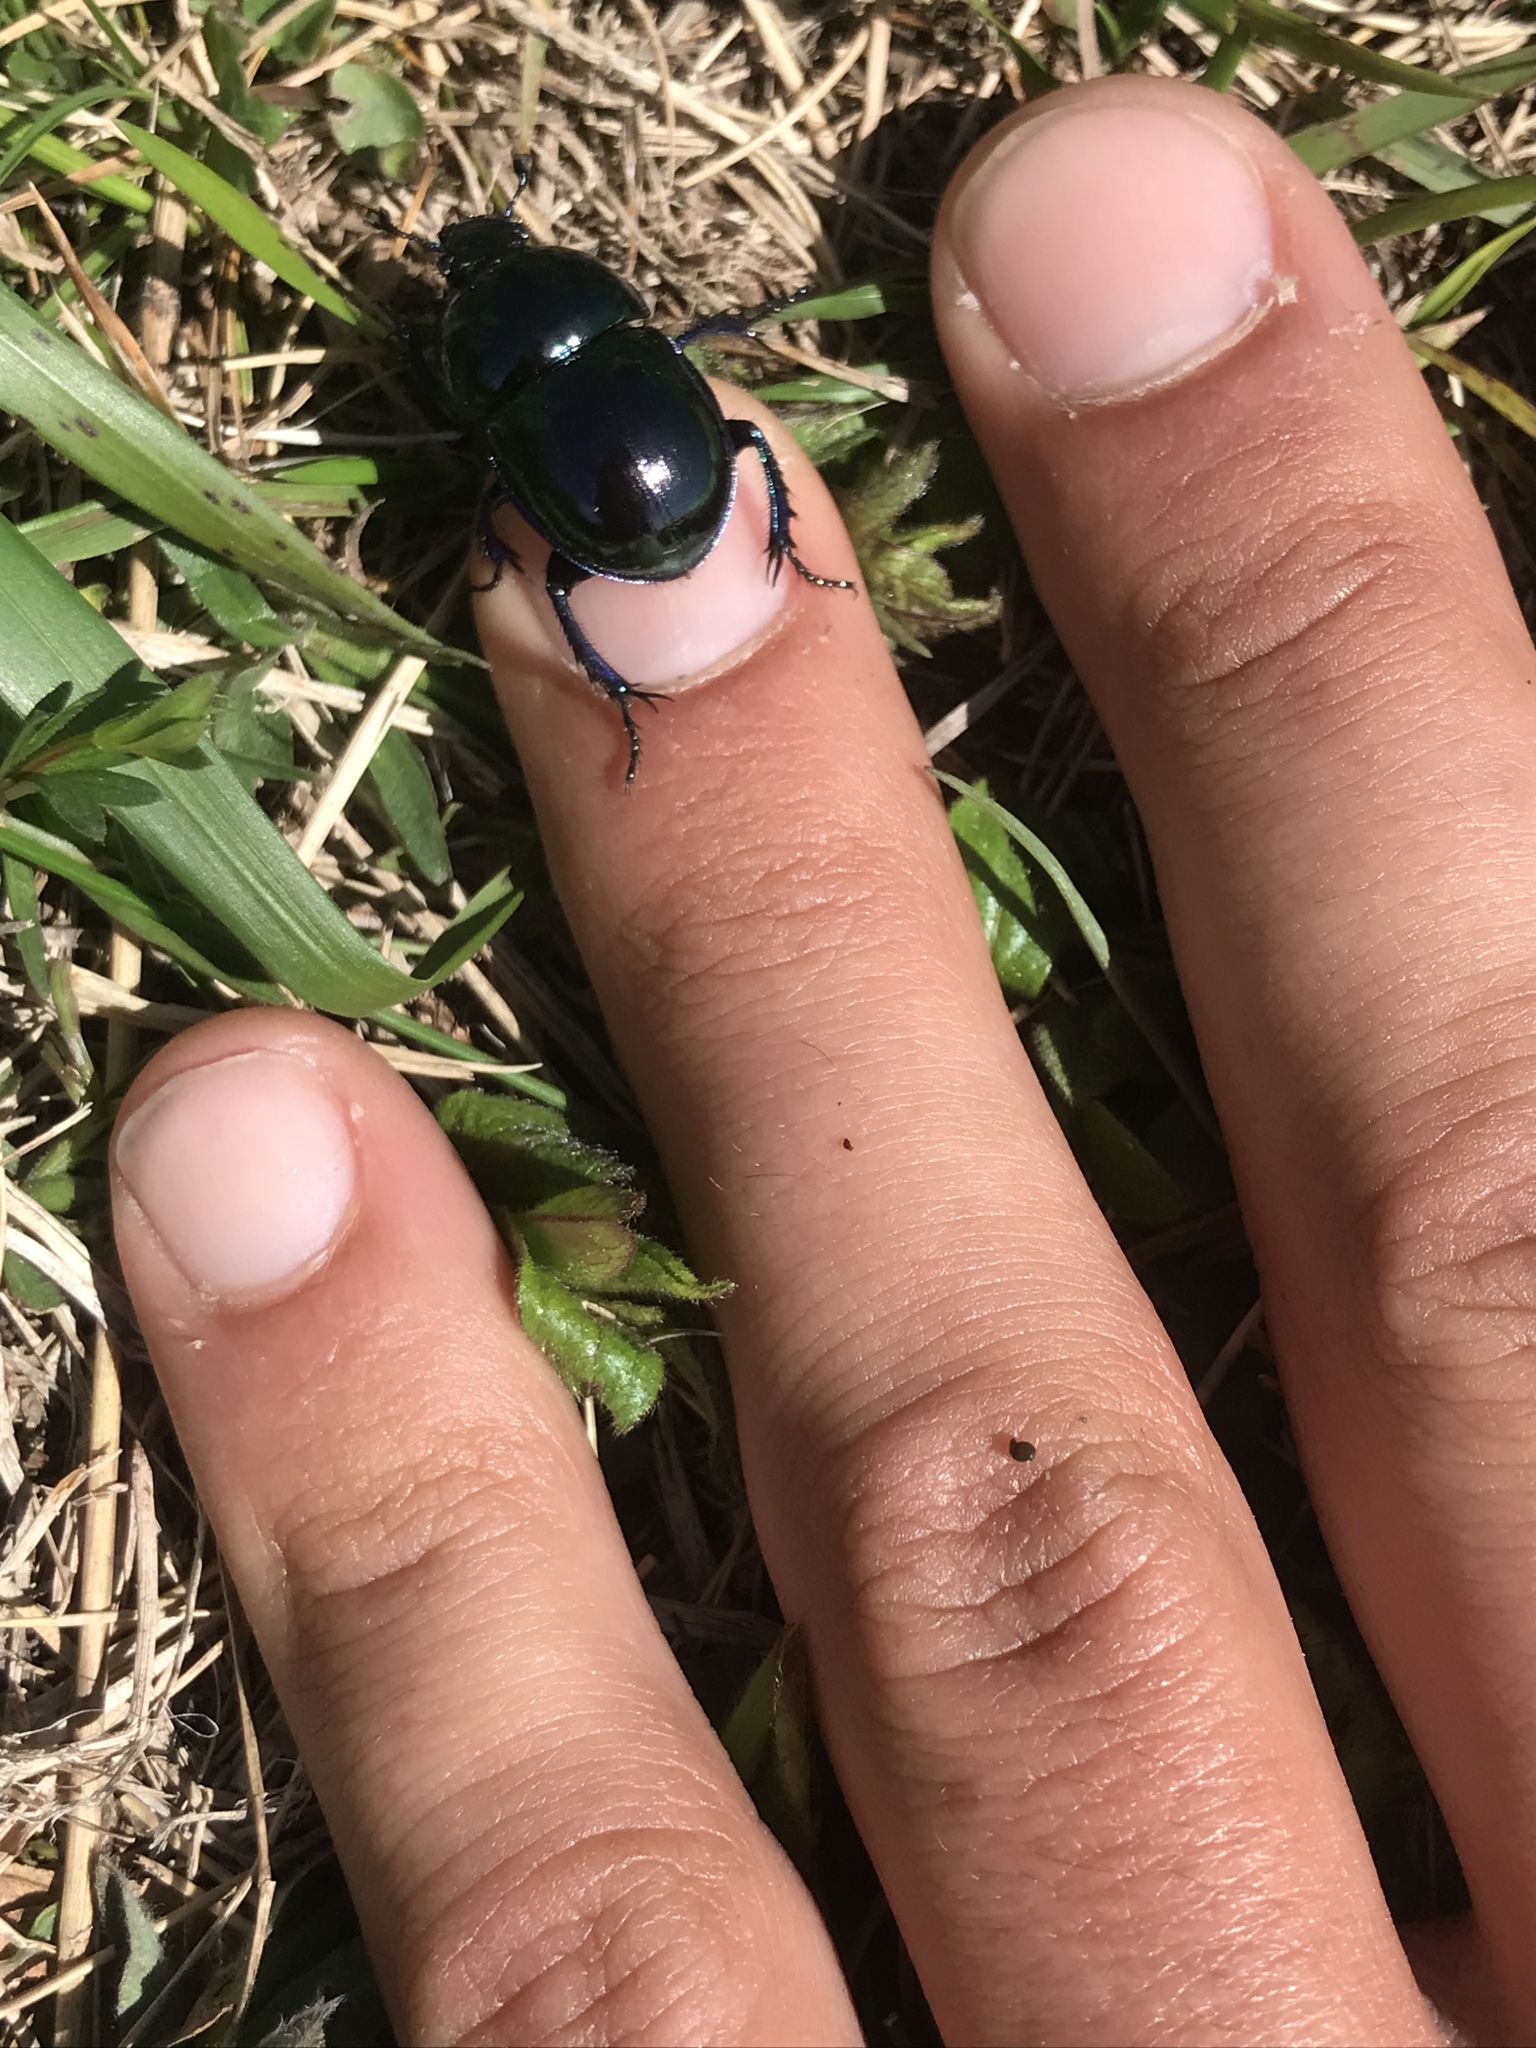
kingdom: Animalia
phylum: Arthropoda
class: Insecta
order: Coleoptera
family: Geotrupidae
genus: Anoplotrupes
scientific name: Anoplotrupes stercorosus
